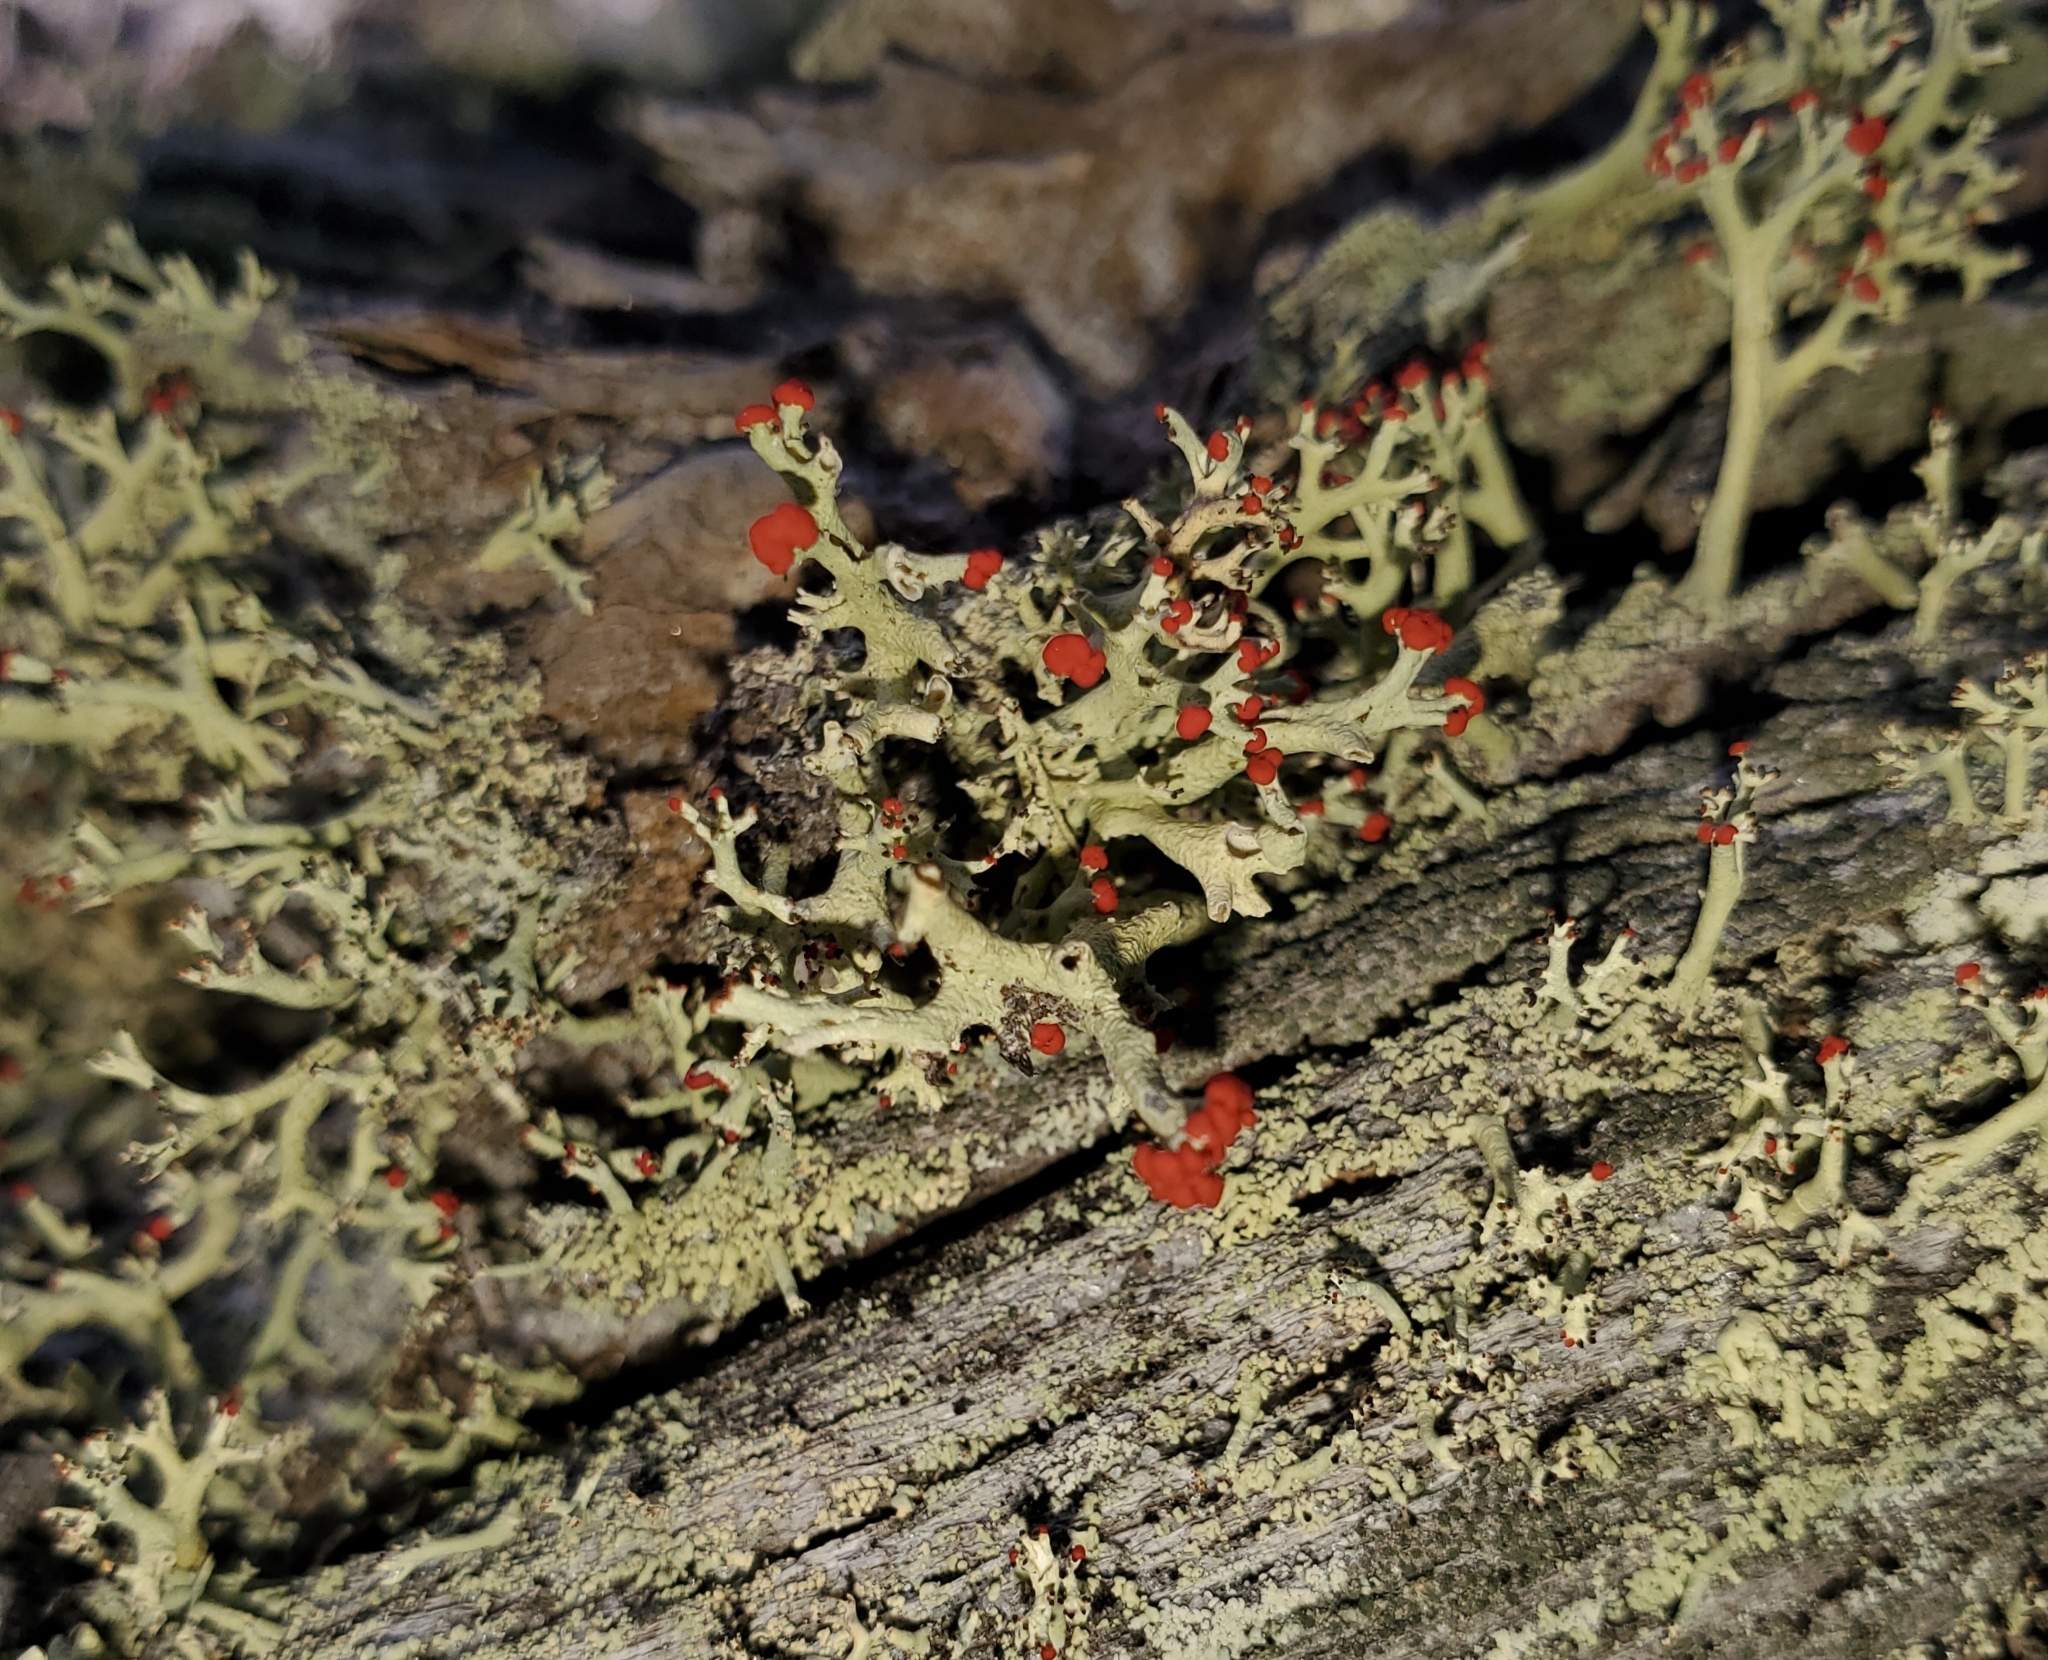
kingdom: Fungi
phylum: Ascomycota
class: Lecanoromycetes
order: Lecanorales
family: Cladoniaceae
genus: Cladonia
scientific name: Cladonia leporina
